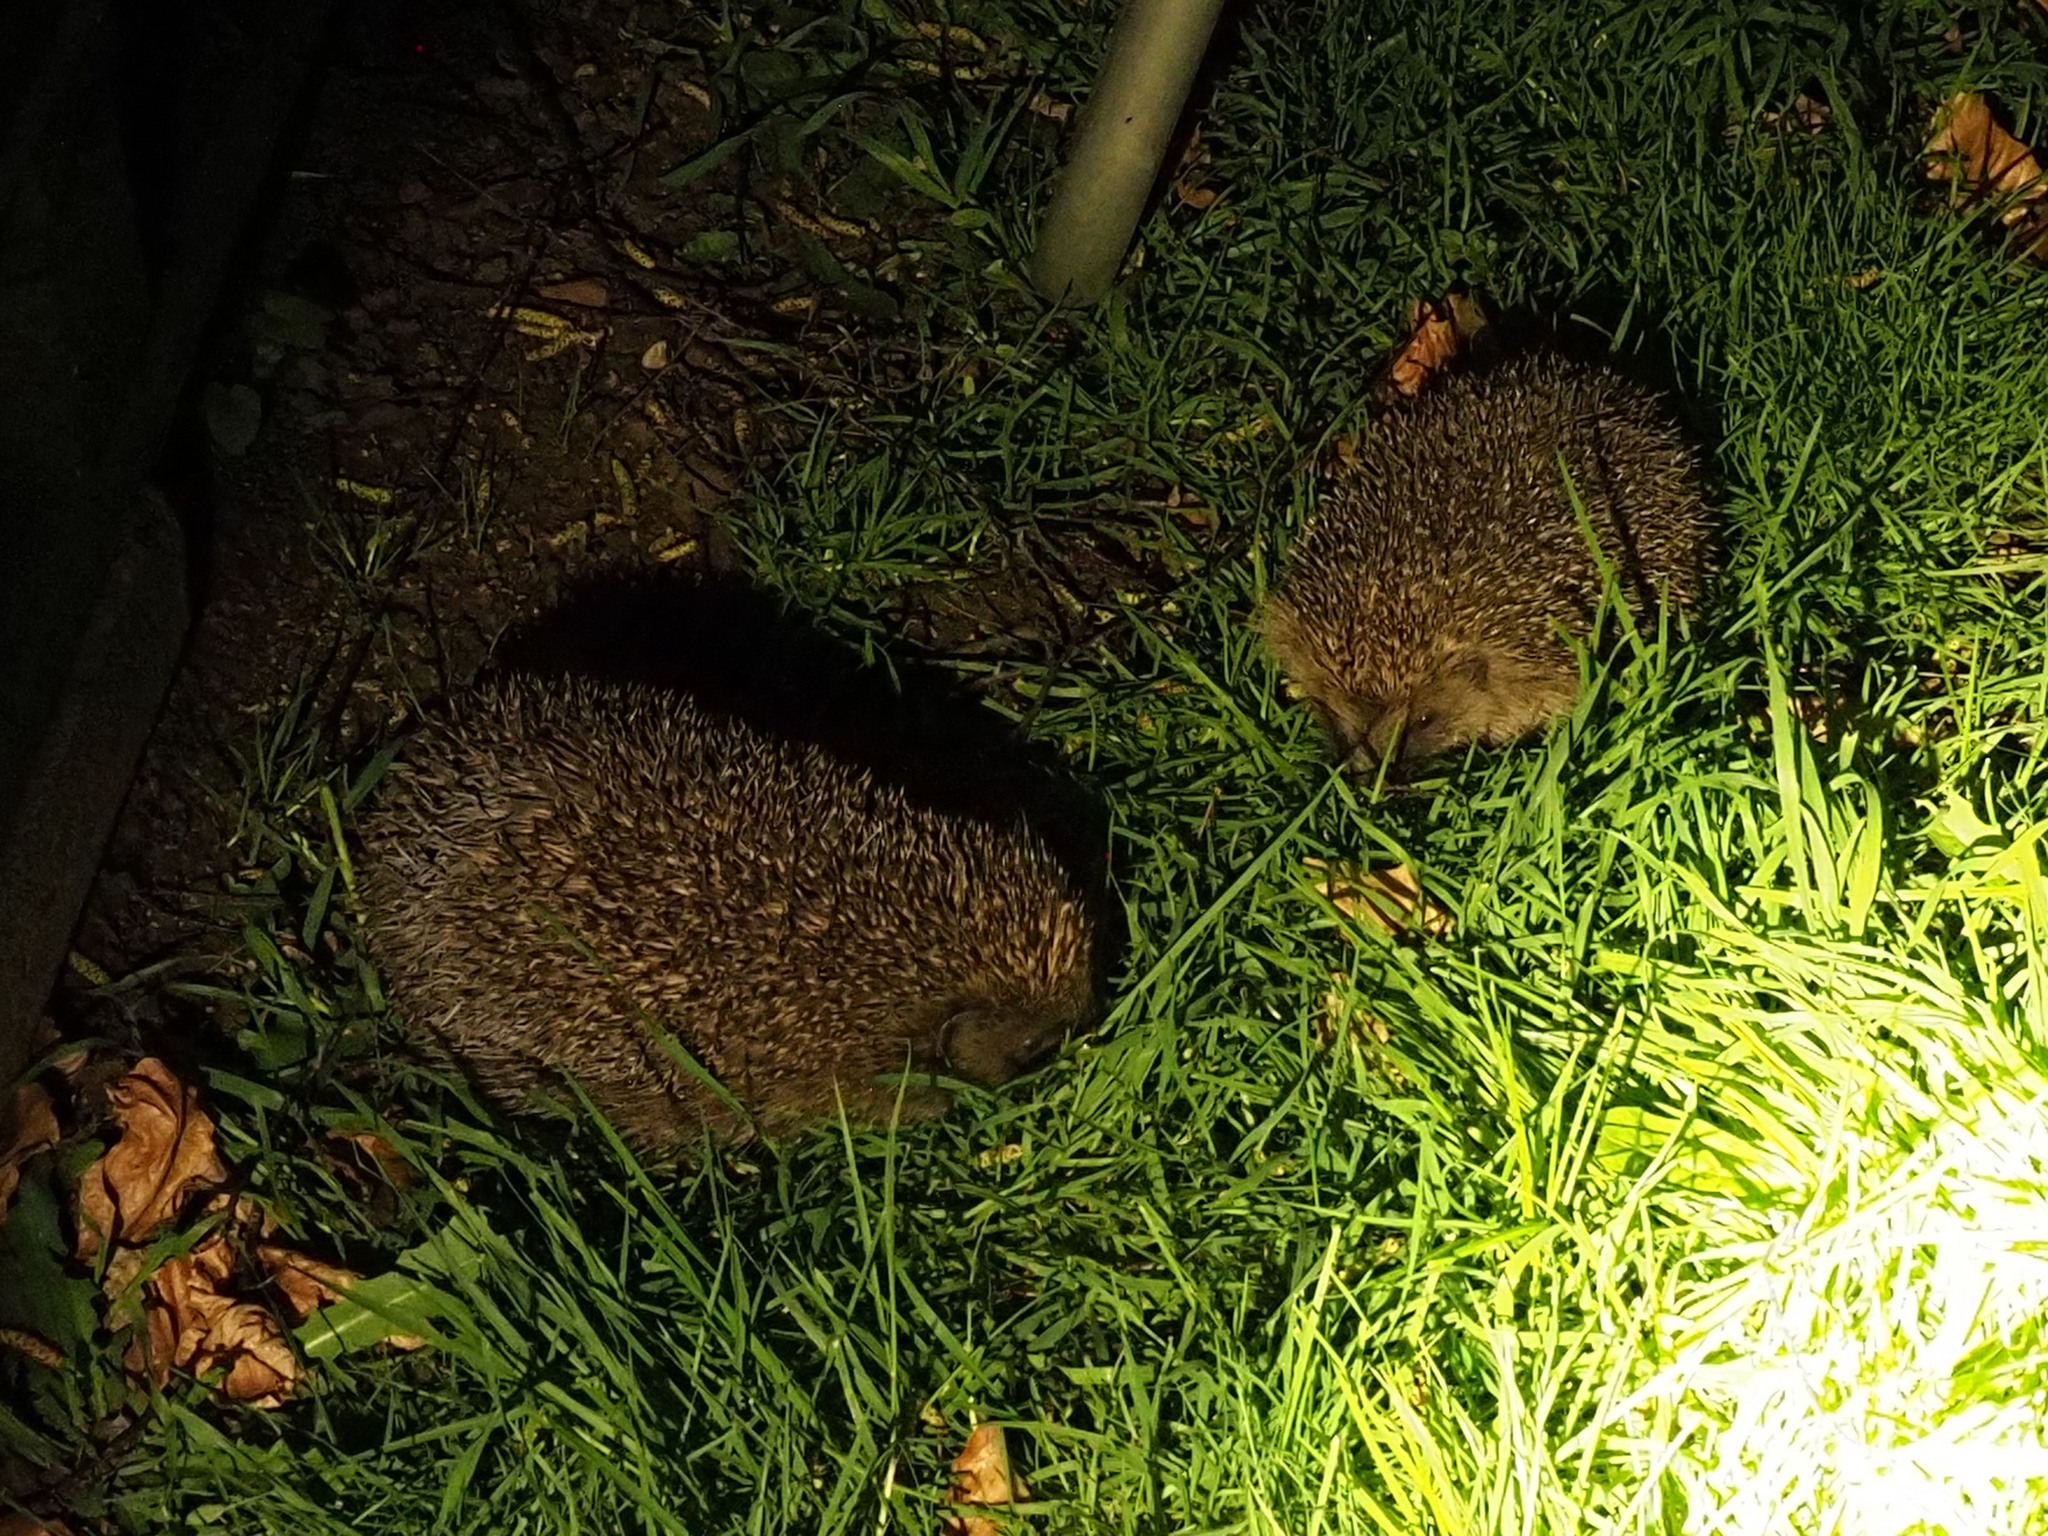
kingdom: Animalia
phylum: Chordata
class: Mammalia
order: Erinaceomorpha
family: Erinaceidae
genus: Erinaceus
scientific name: Erinaceus europaeus
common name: West european hedgehog
